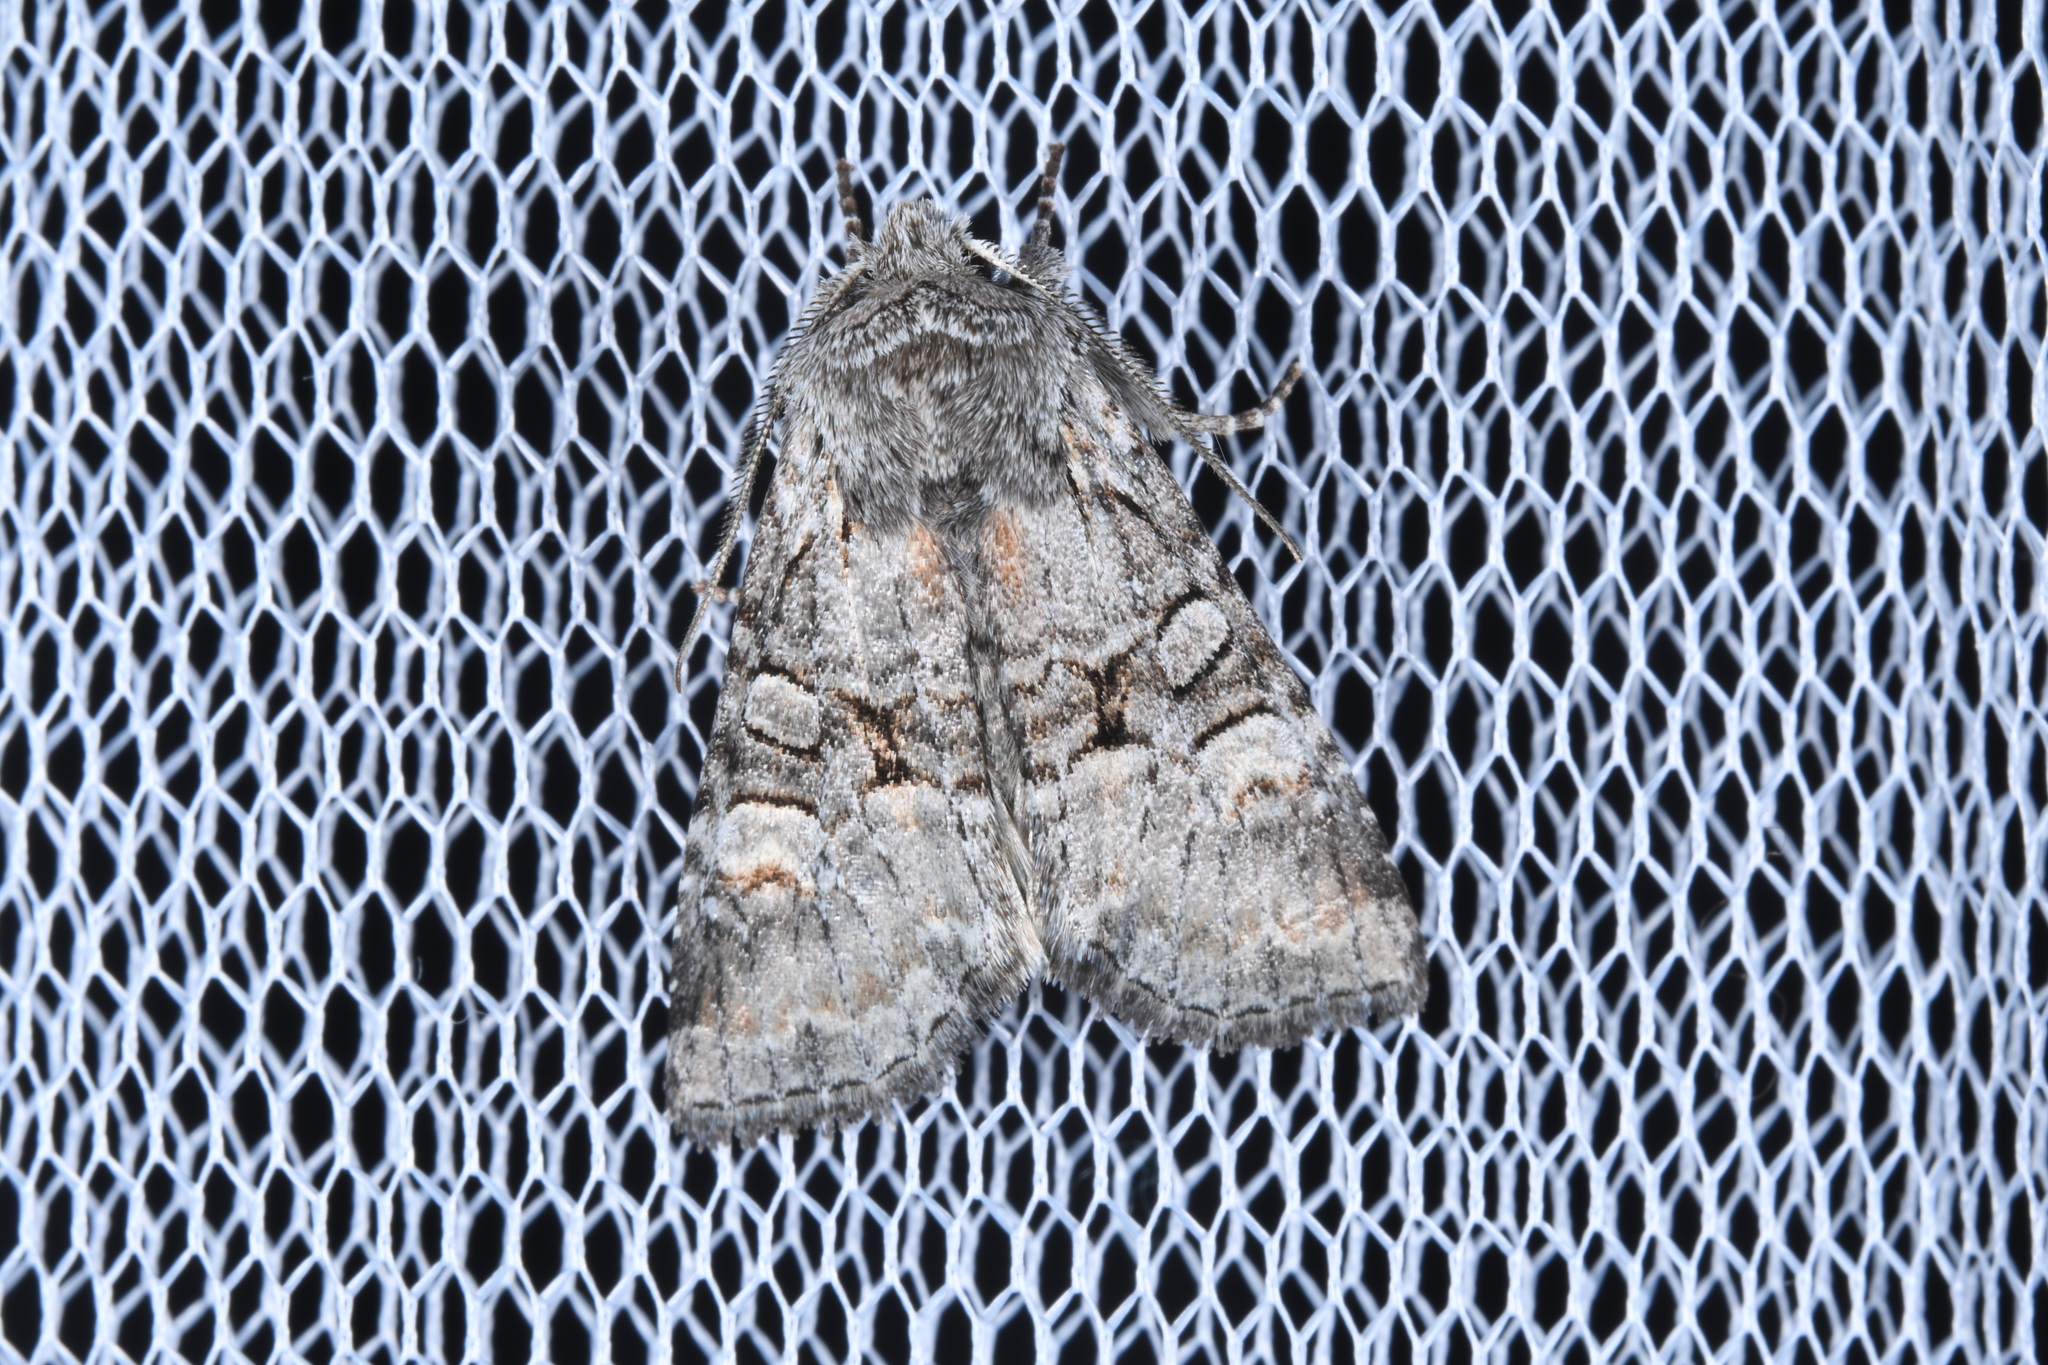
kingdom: Animalia
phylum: Arthropoda
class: Insecta
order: Lepidoptera
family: Noctuidae
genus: Brachylomia
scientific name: Brachylomia viminalis
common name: Minor shoulder-knot
